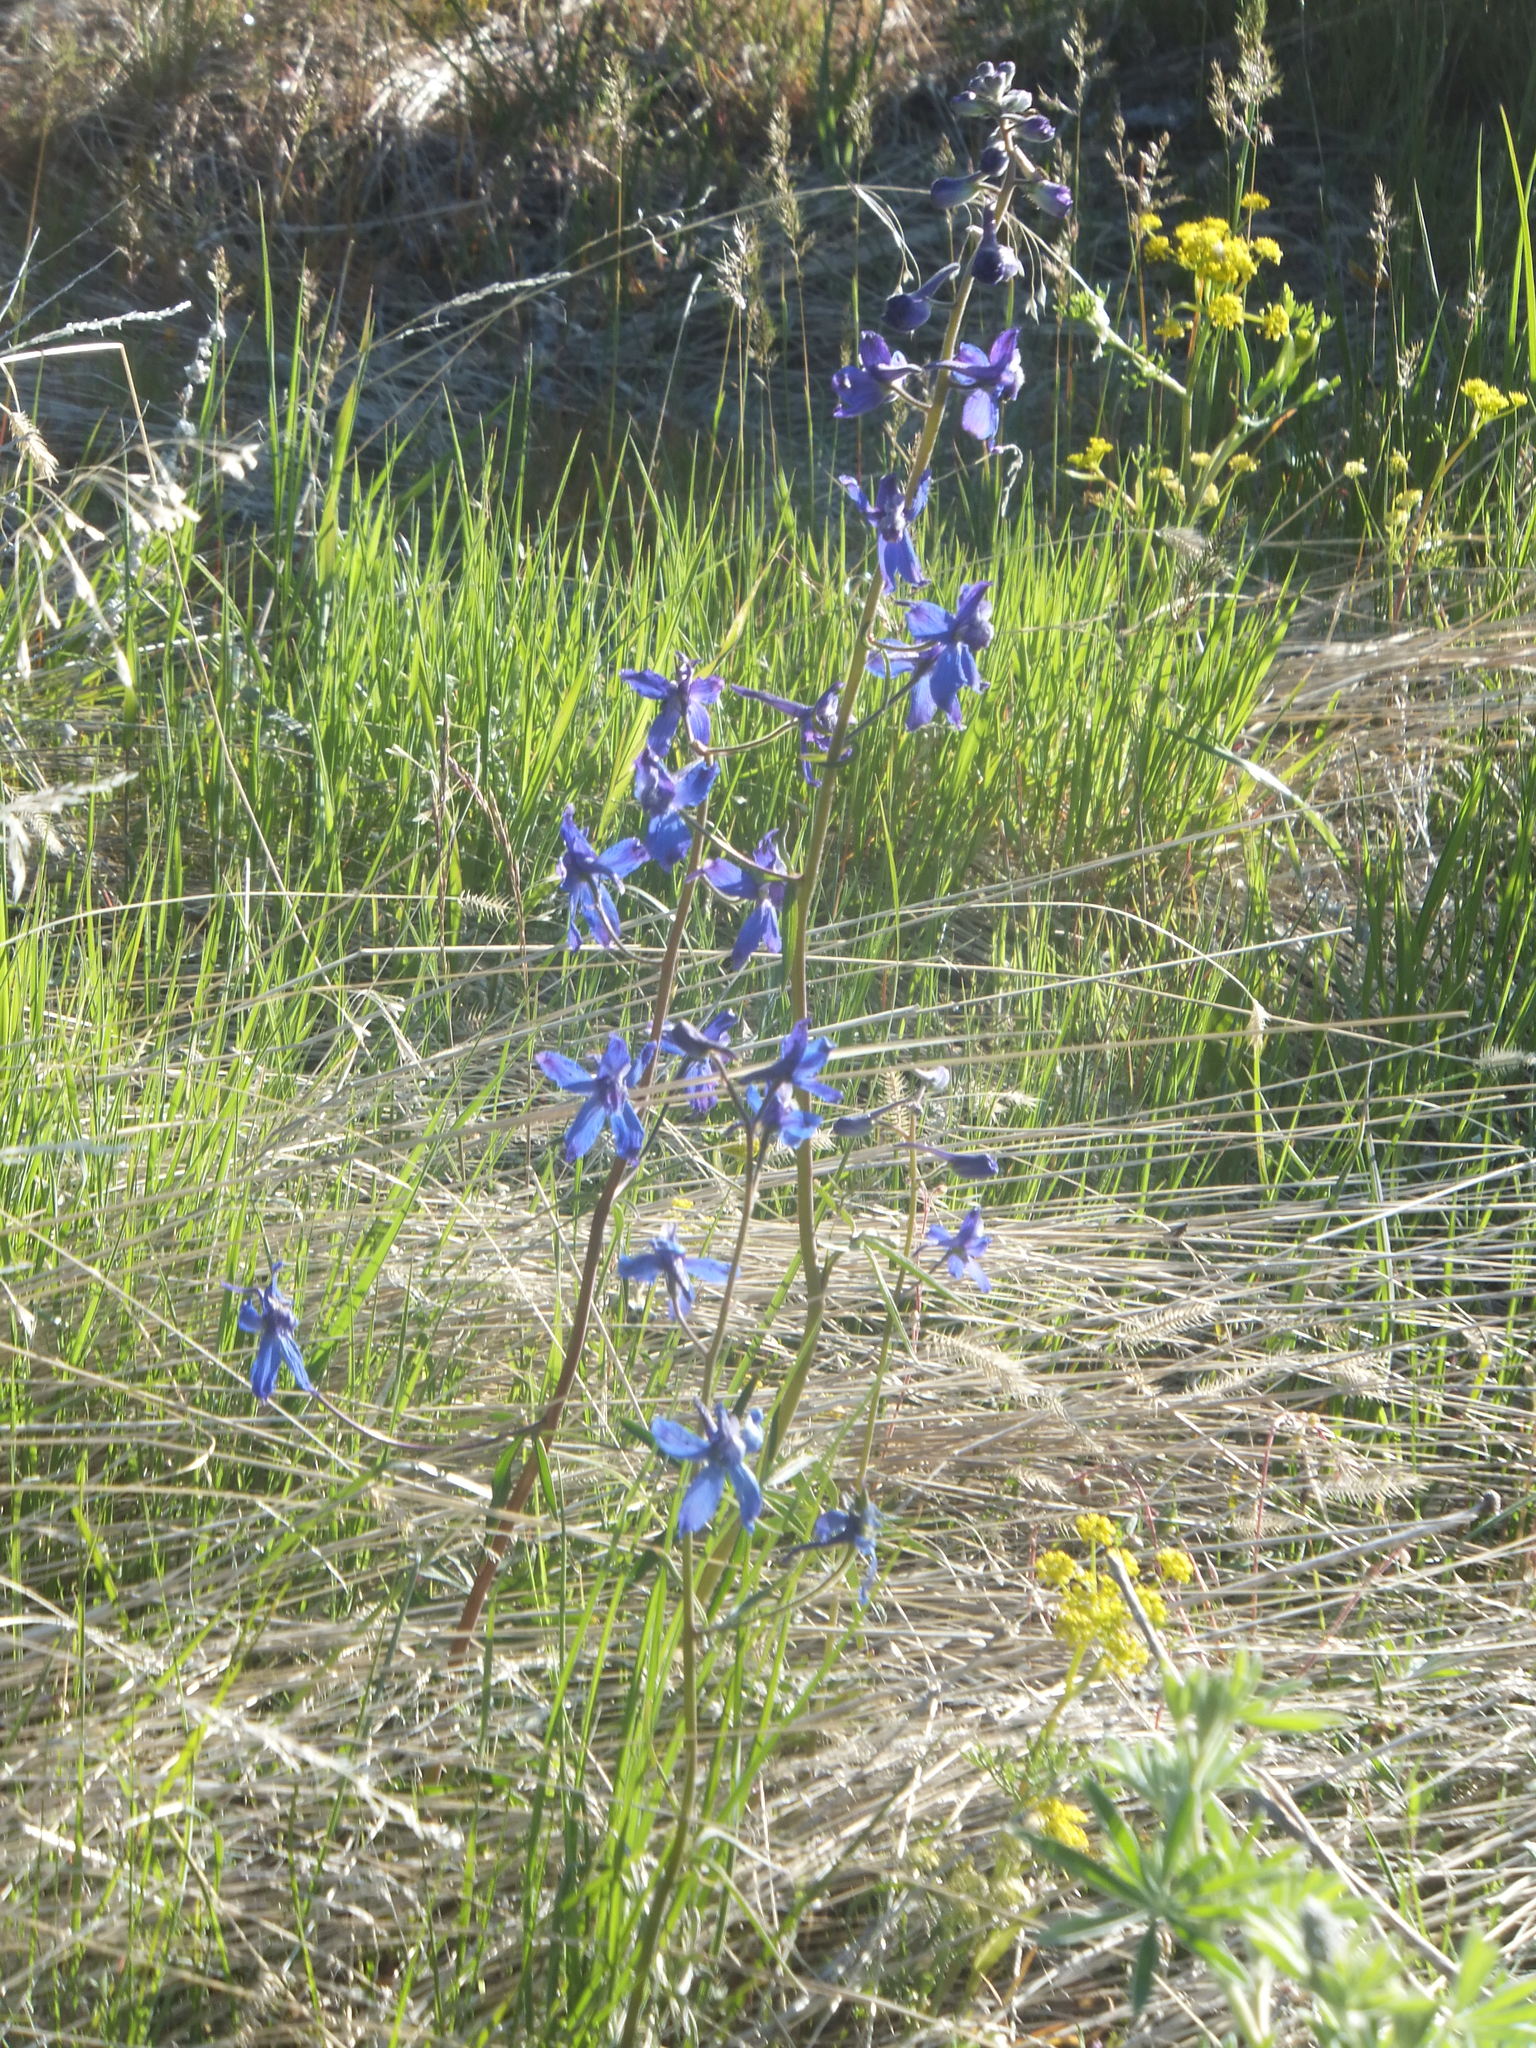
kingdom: Plantae
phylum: Tracheophyta
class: Magnoliopsida
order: Ranunculales
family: Ranunculaceae
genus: Delphinium
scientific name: Delphinium nuttallianum
